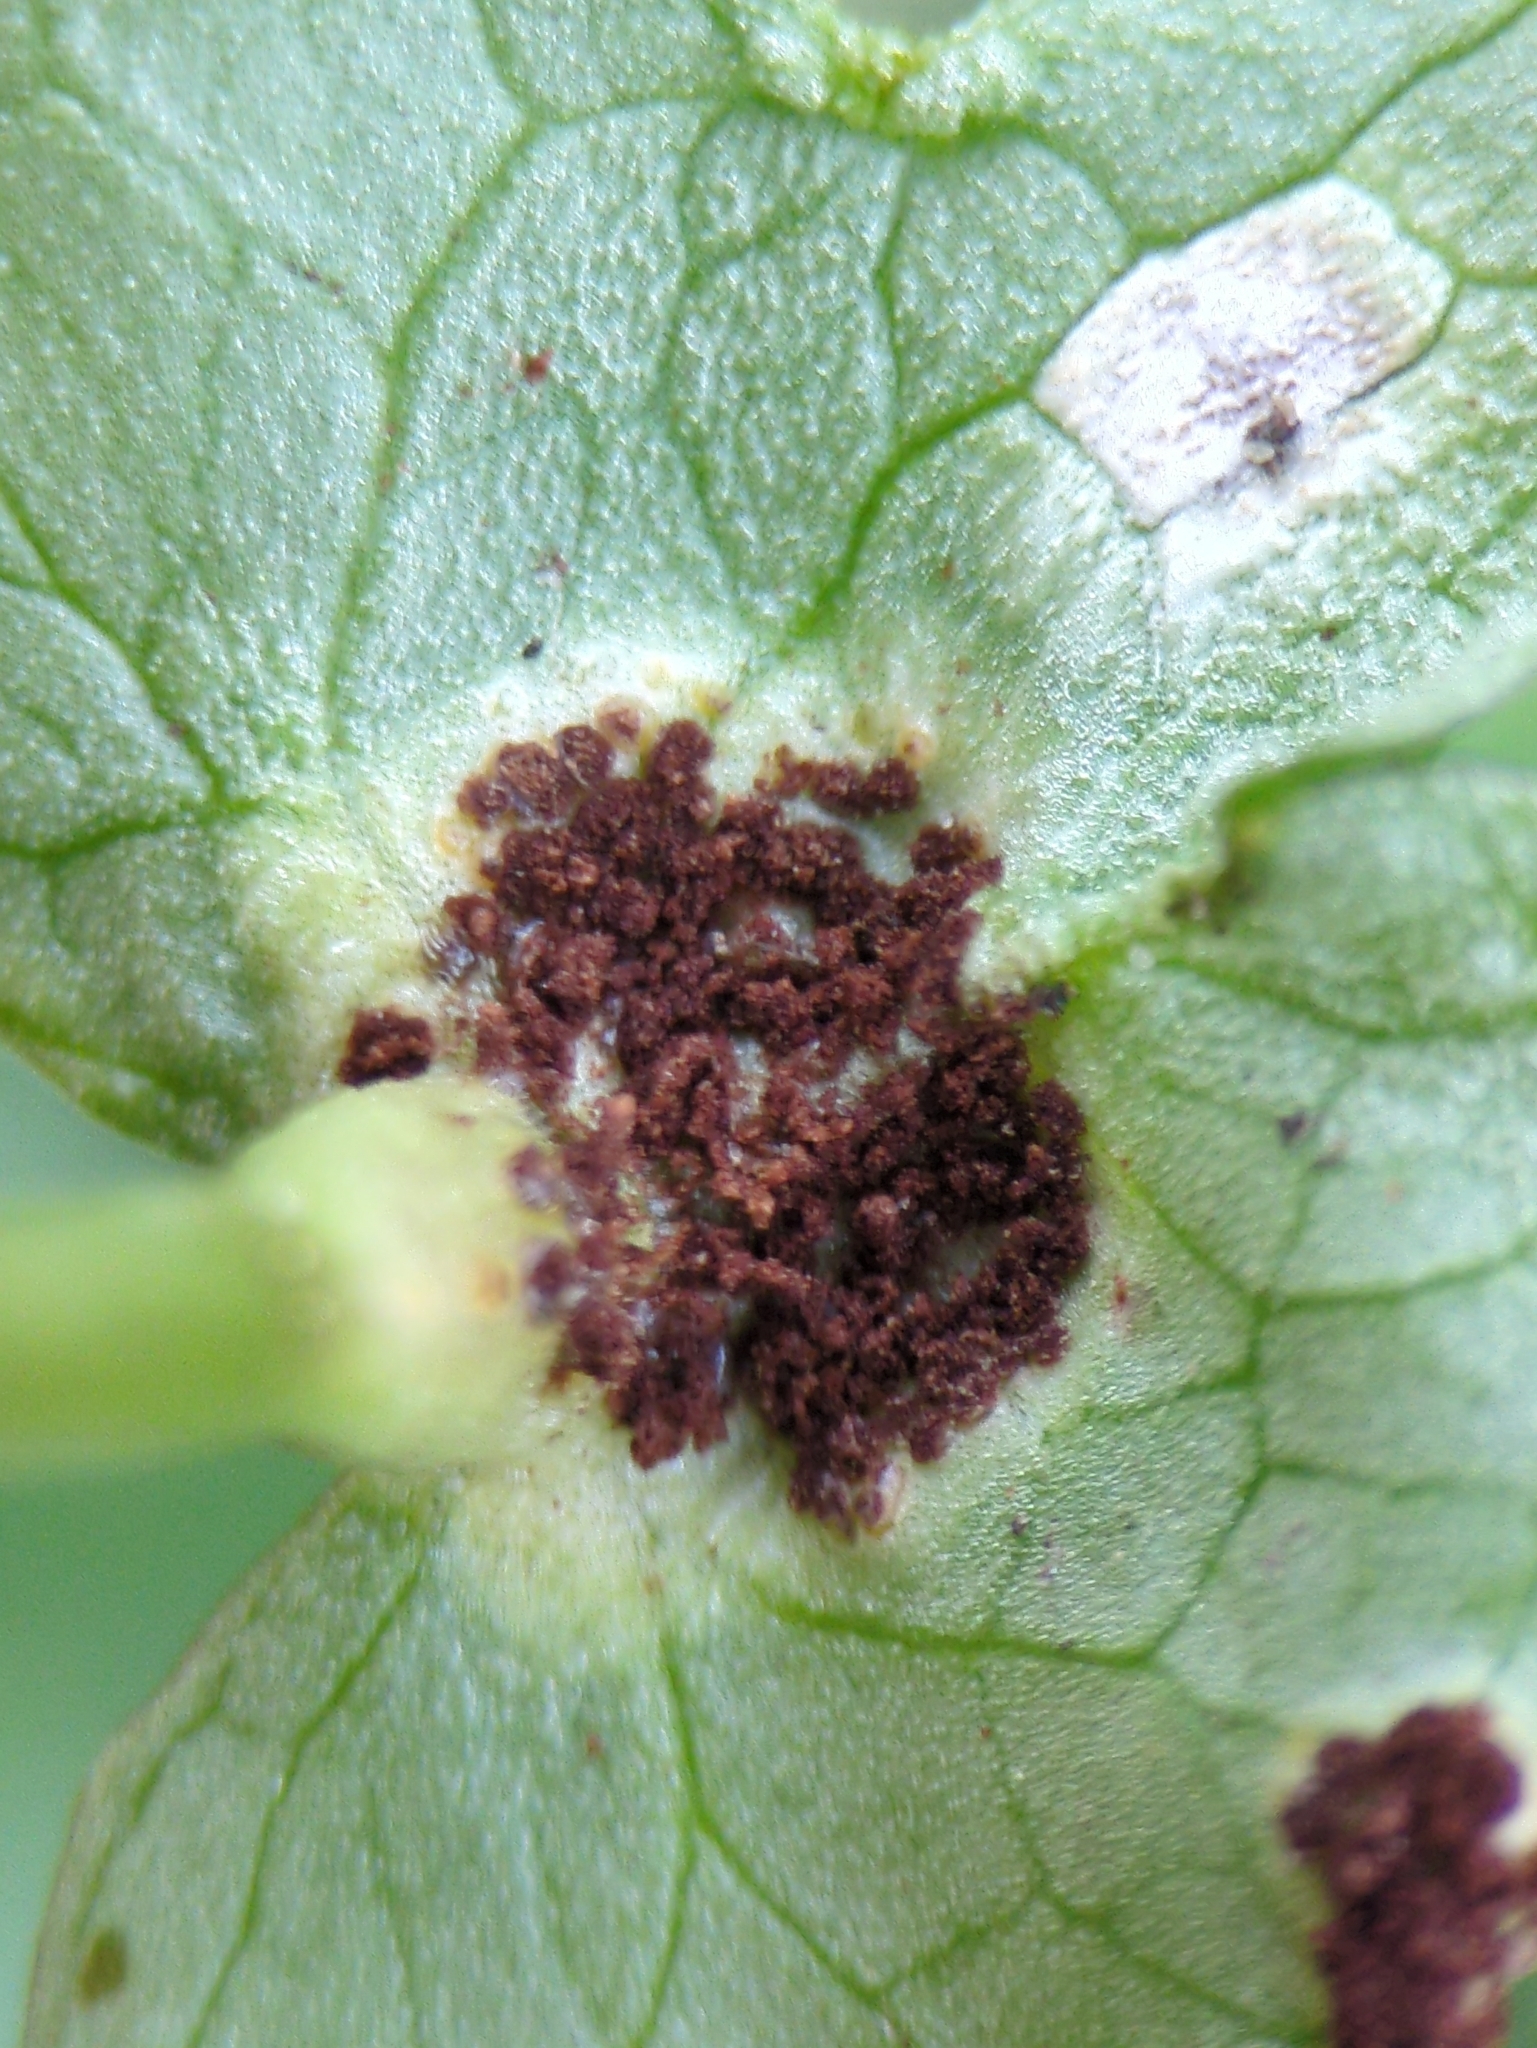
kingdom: Fungi
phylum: Basidiomycota
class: Pucciniomycetes
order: Pucciniales
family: Pucciniaceae
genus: Uromyces
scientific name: Uromyces ficariae
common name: Bitter chocolate rust
